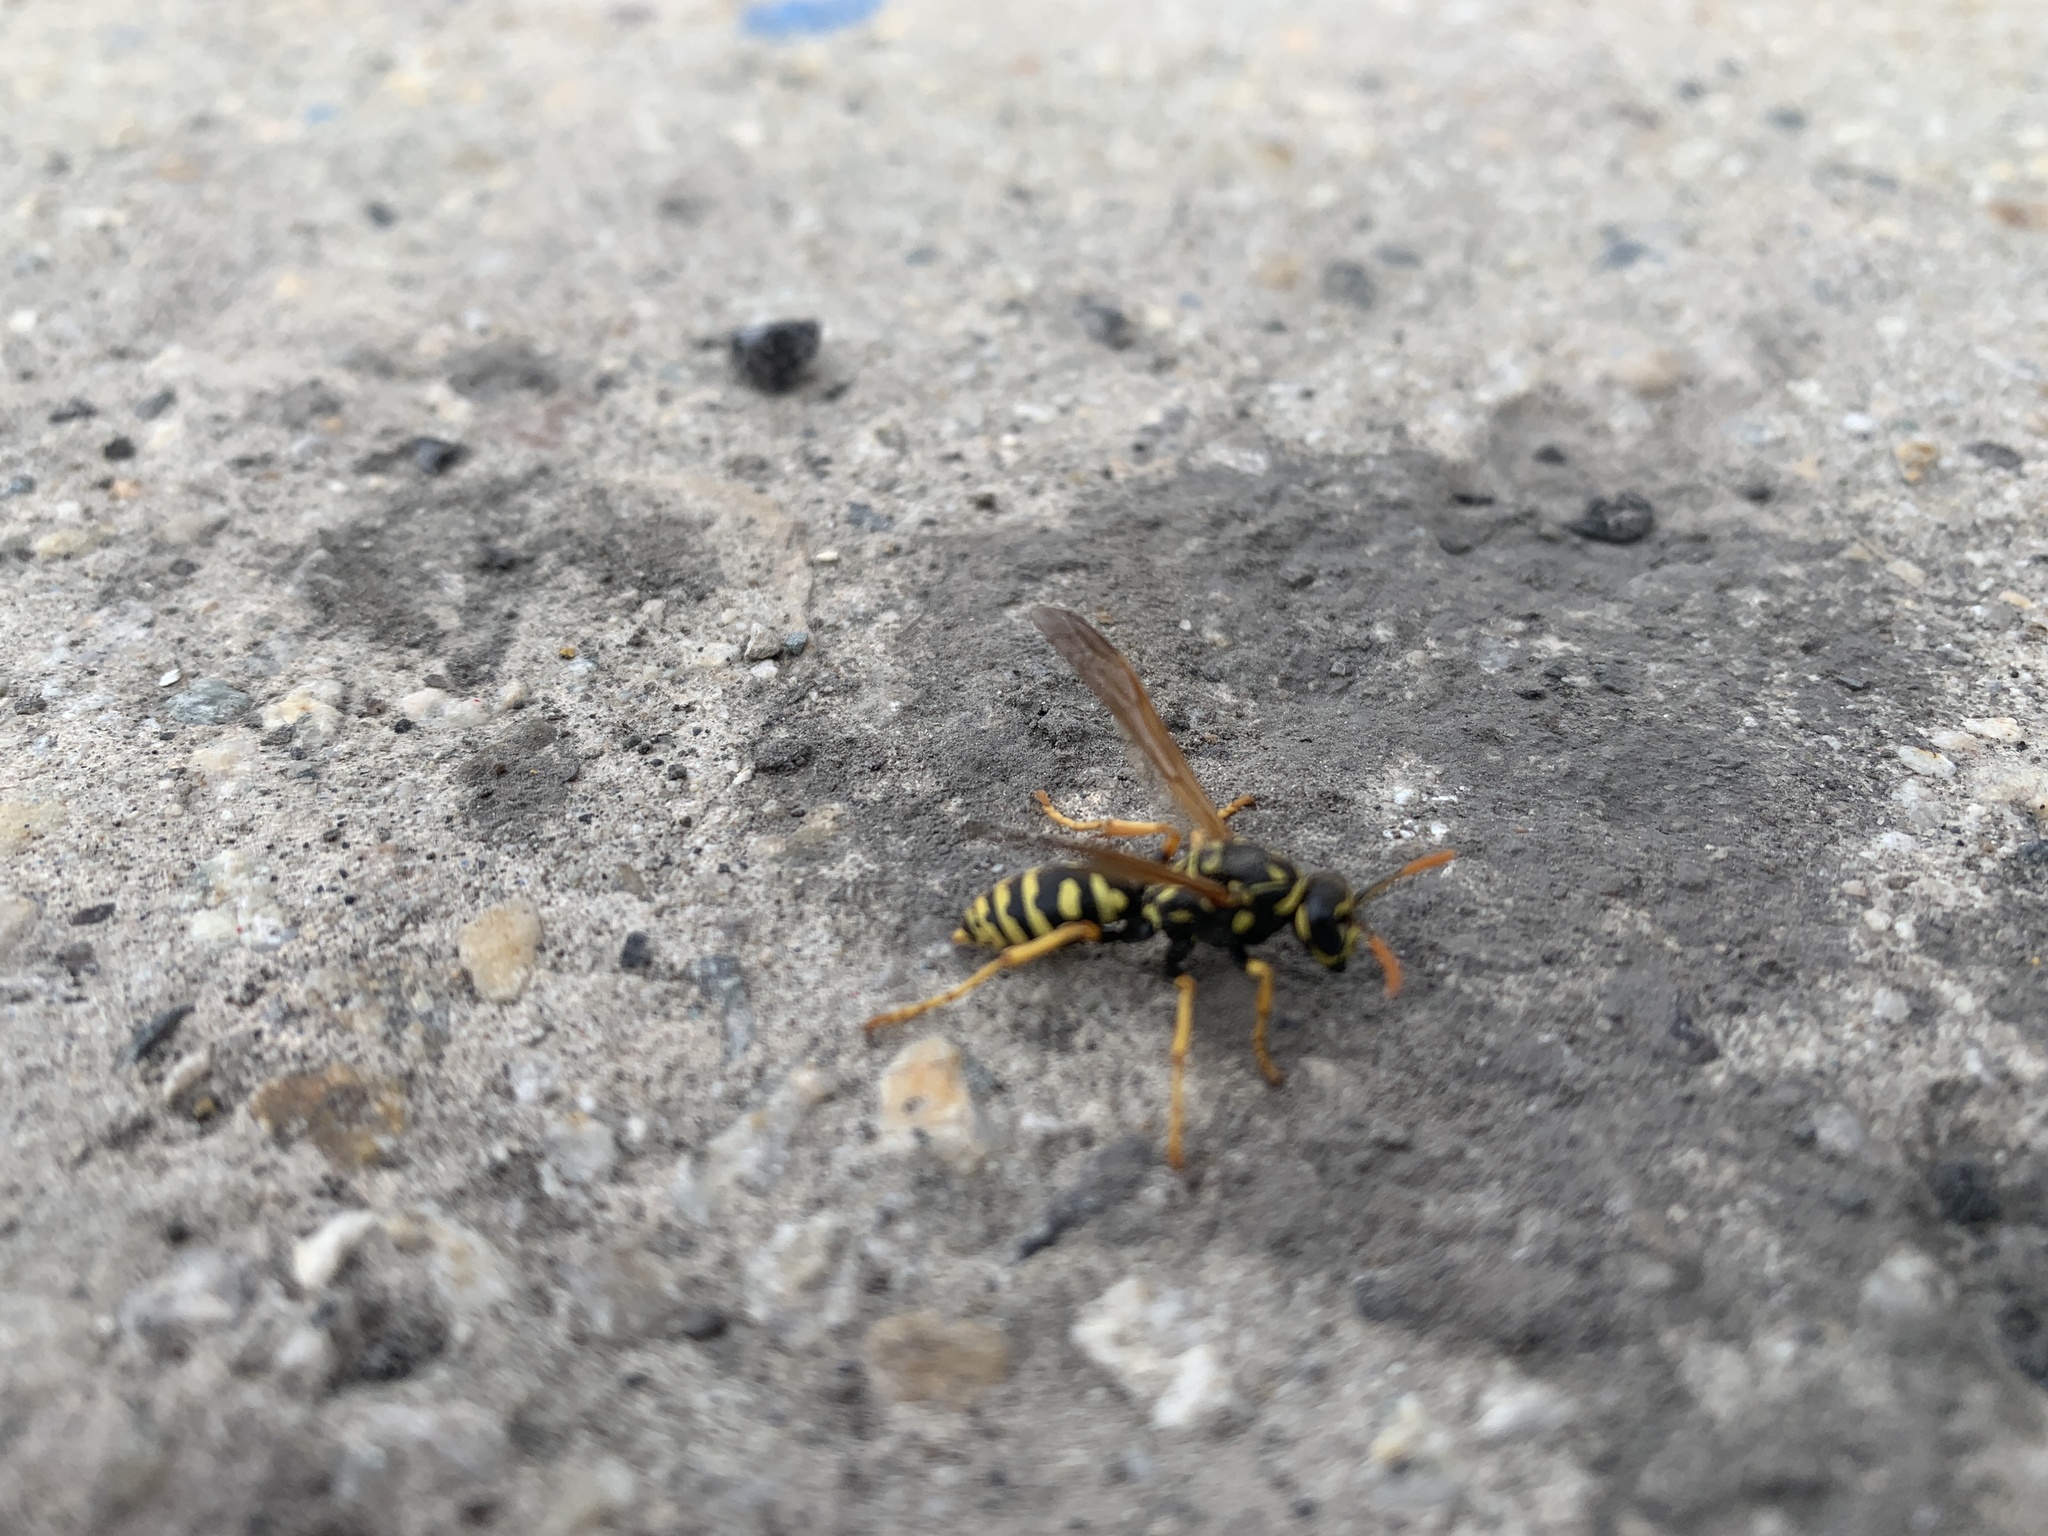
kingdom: Animalia
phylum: Arthropoda
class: Insecta
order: Hymenoptera
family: Eumenidae
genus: Polistes
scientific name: Polistes dominula
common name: Paper wasp
